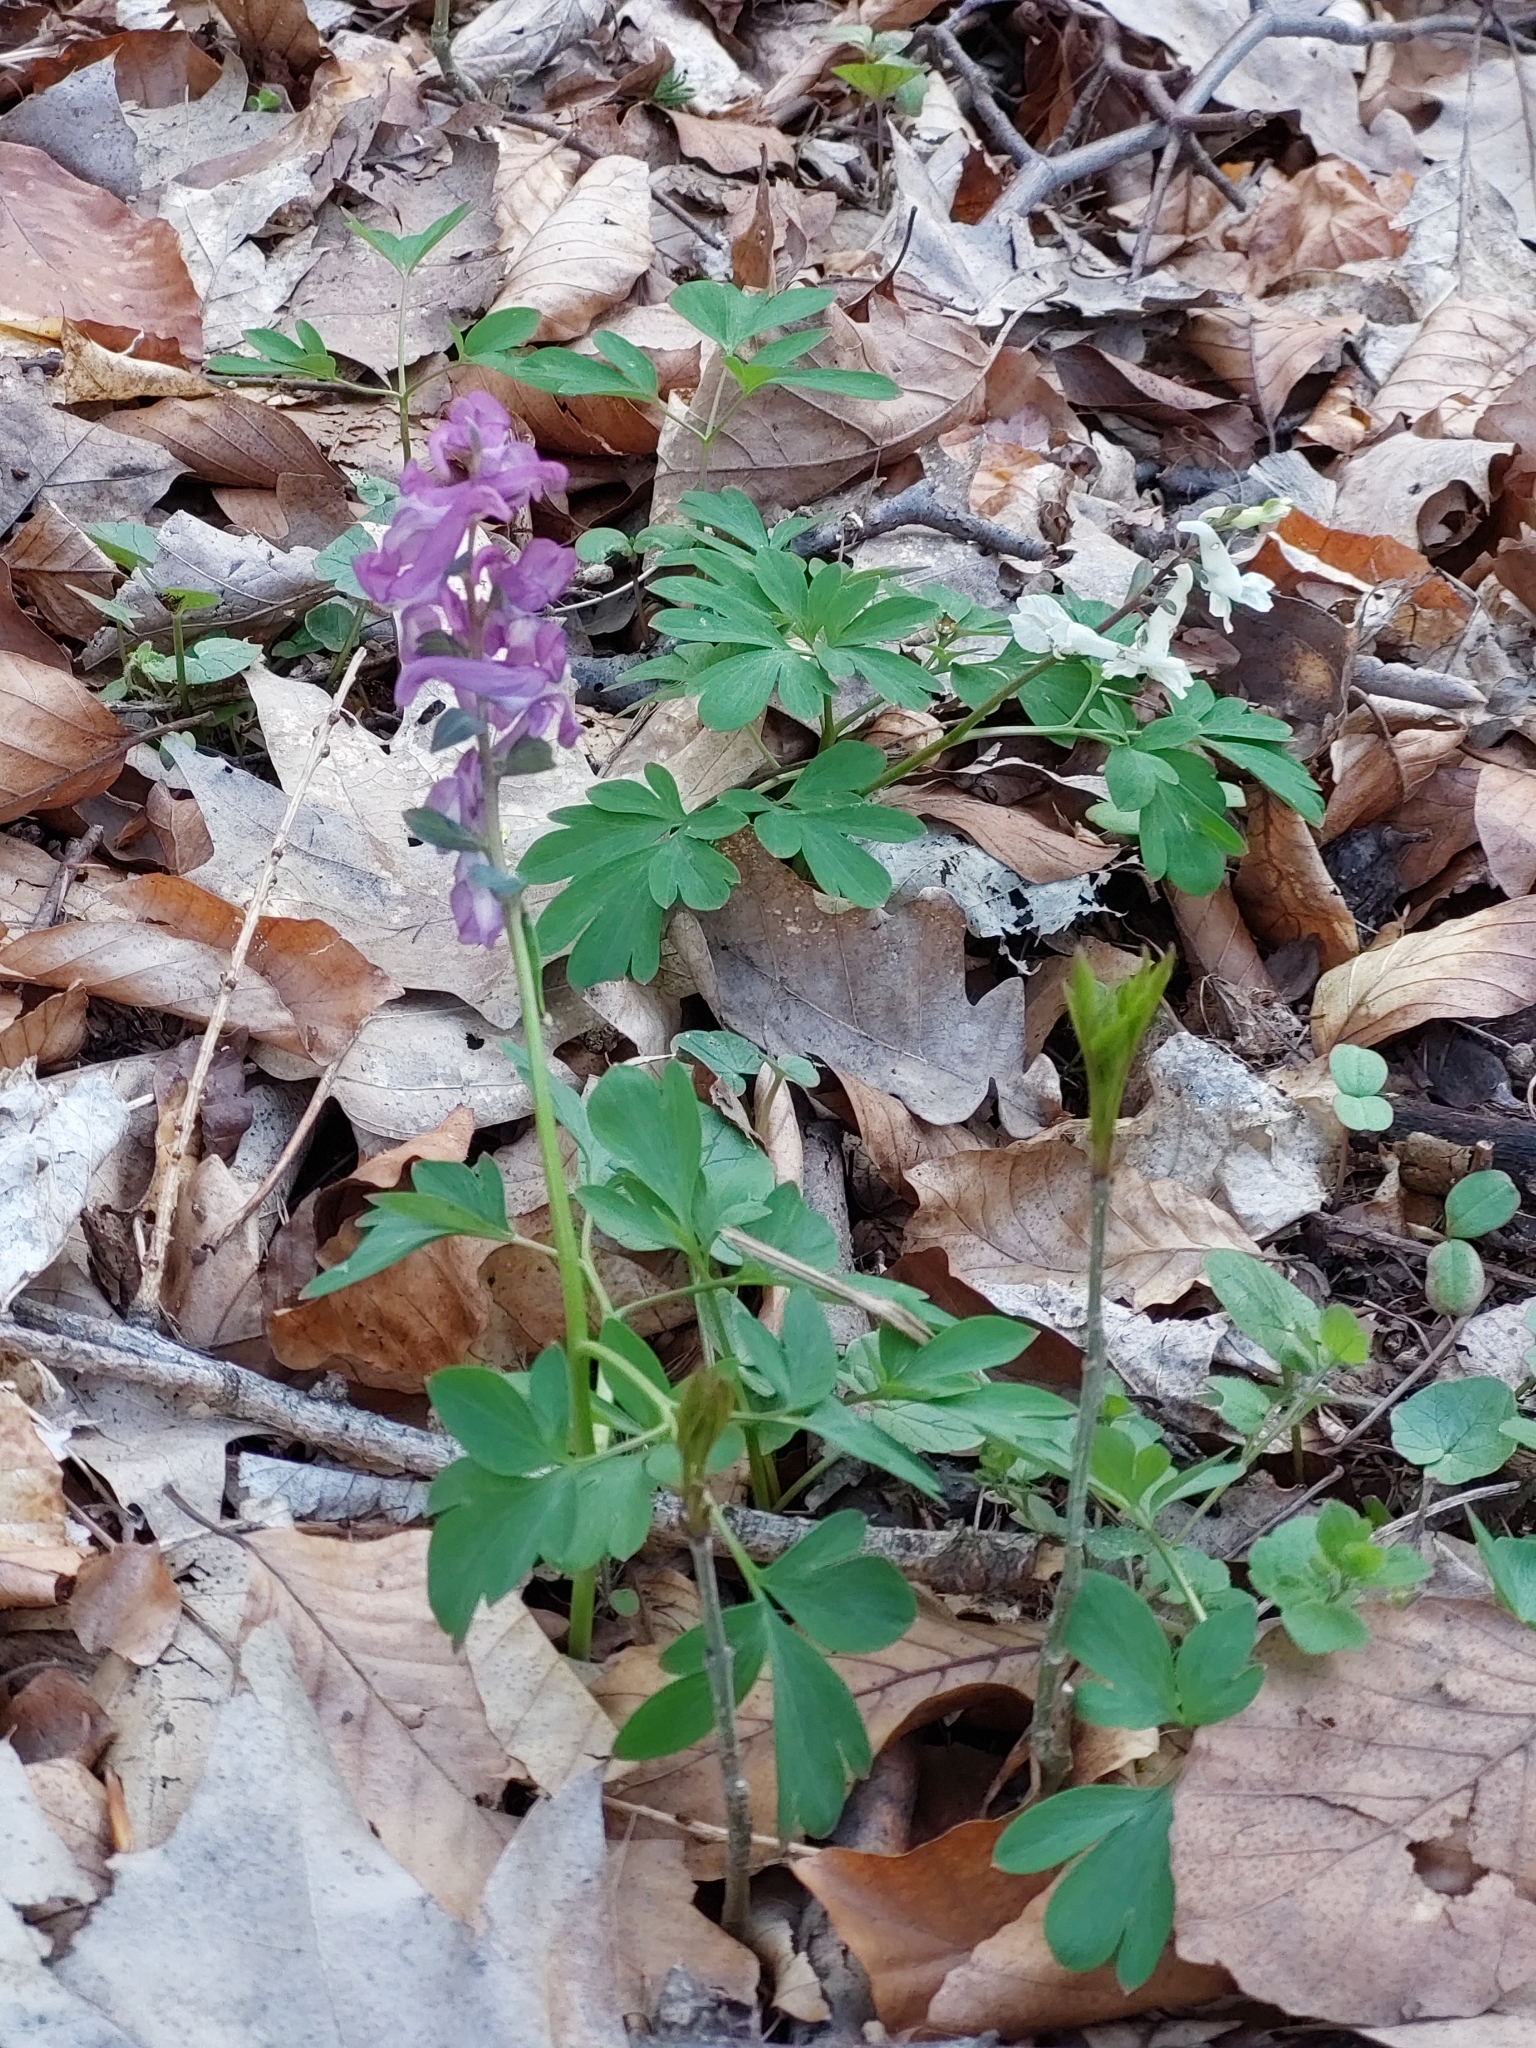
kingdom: Plantae
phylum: Tracheophyta
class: Magnoliopsida
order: Ranunculales
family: Papaveraceae
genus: Corydalis
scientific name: Corydalis cava
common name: Hollowroot
